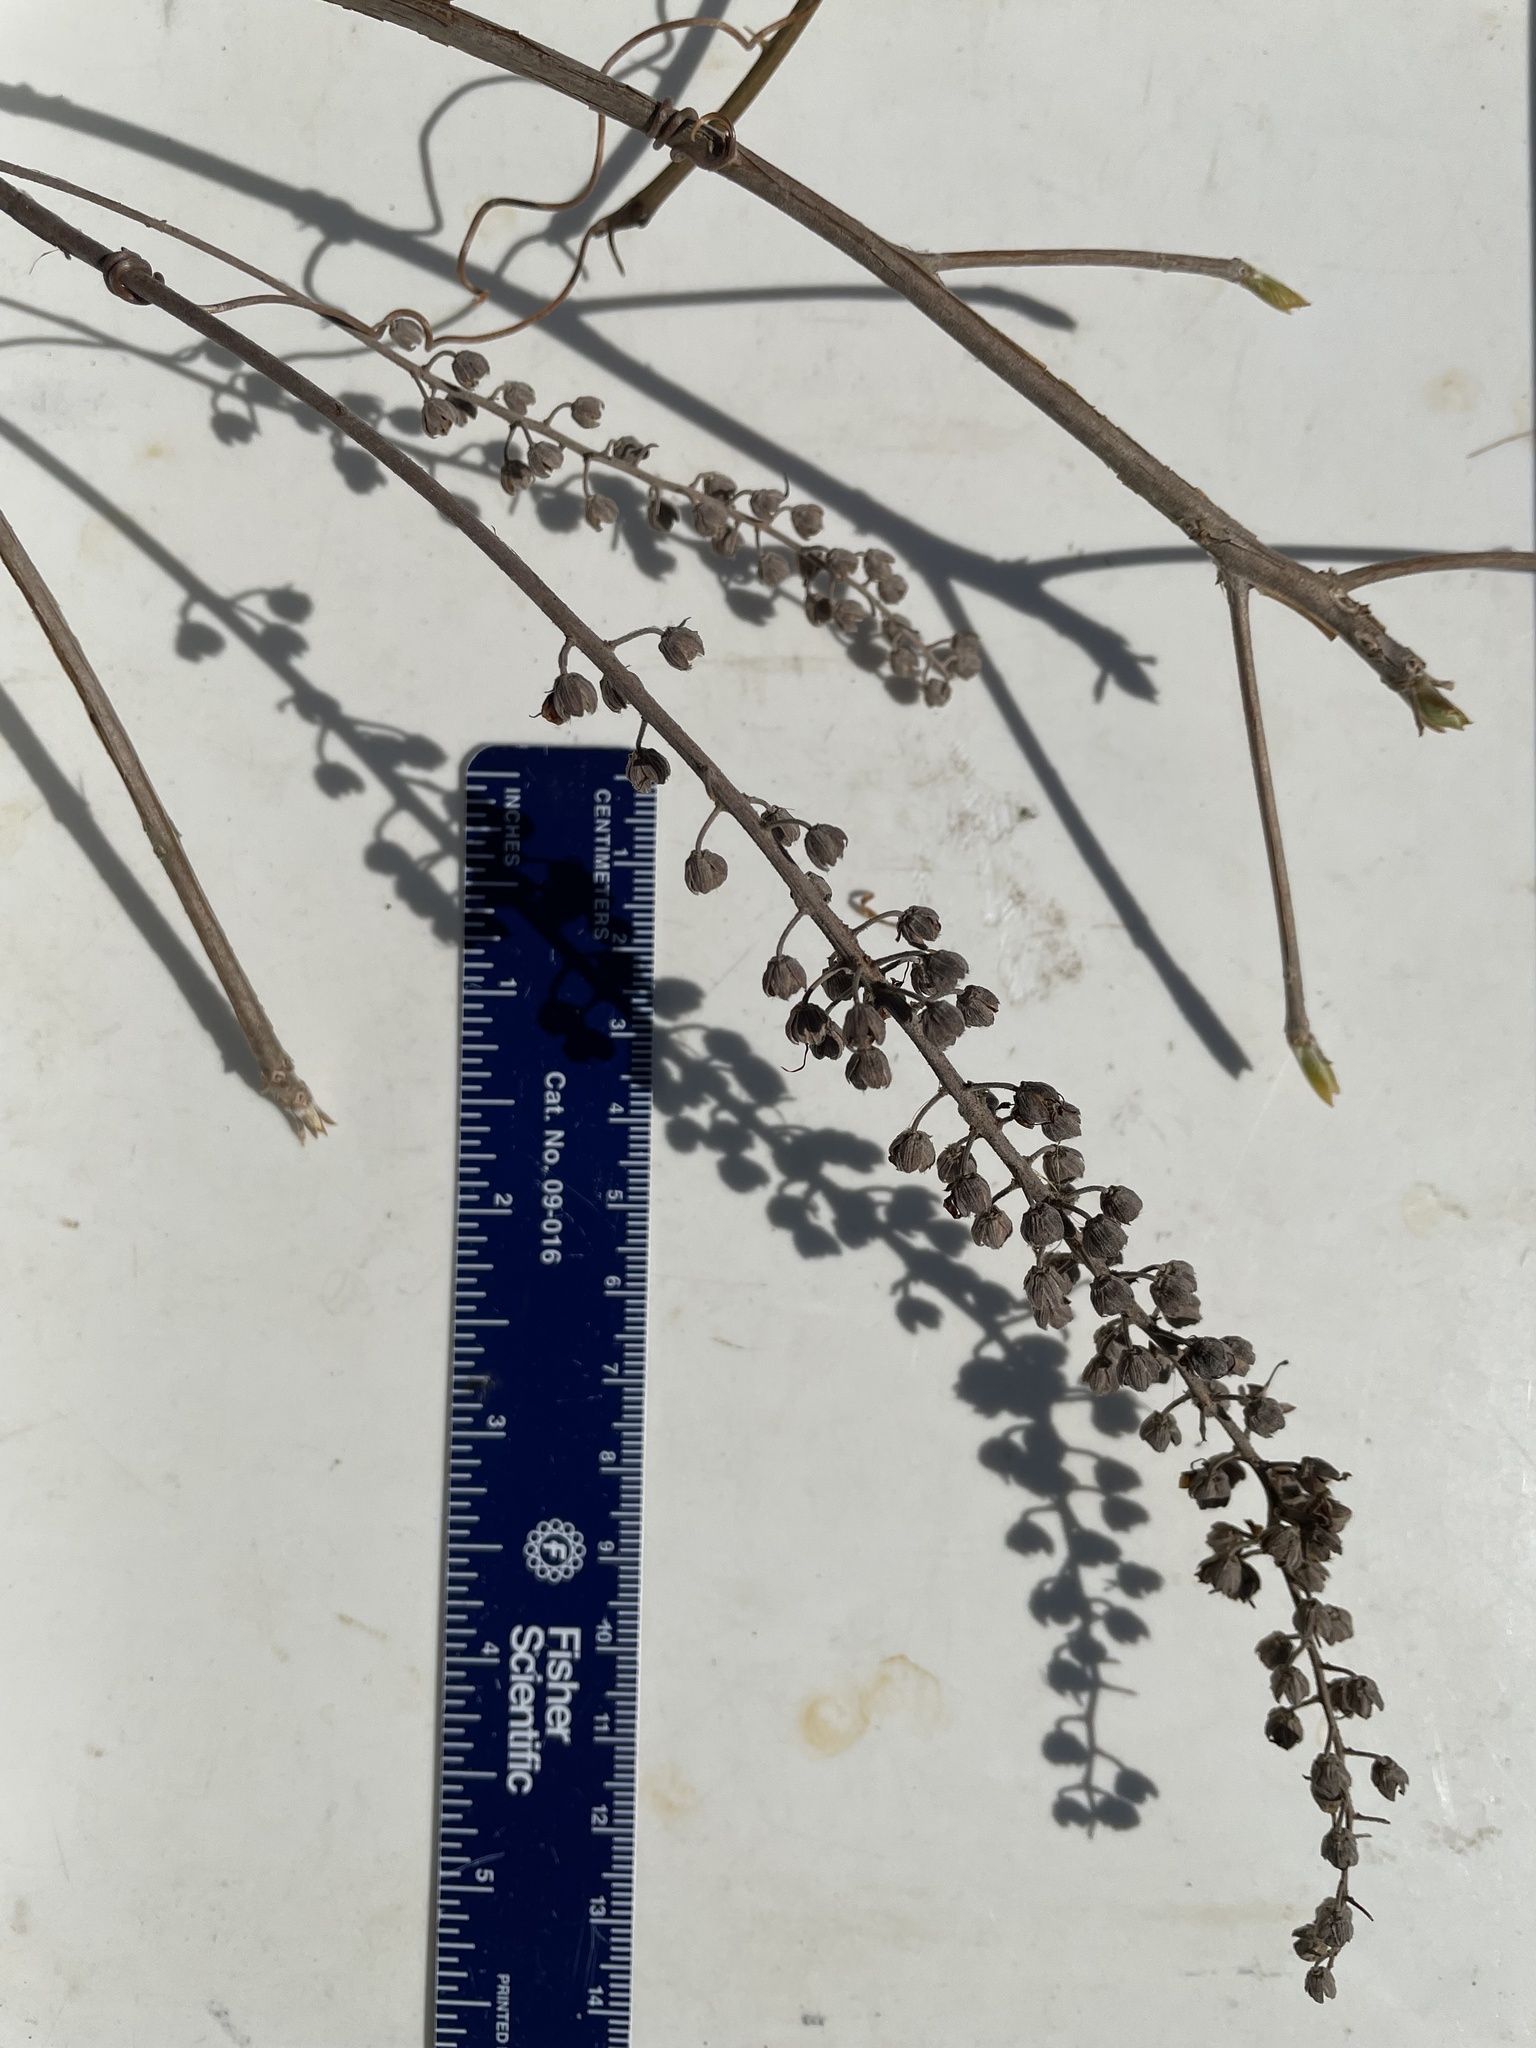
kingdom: Plantae
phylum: Tracheophyta
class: Magnoliopsida
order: Ericales
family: Clethraceae
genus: Clethra
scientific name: Clethra alnifolia
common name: Sweet pepperbush
